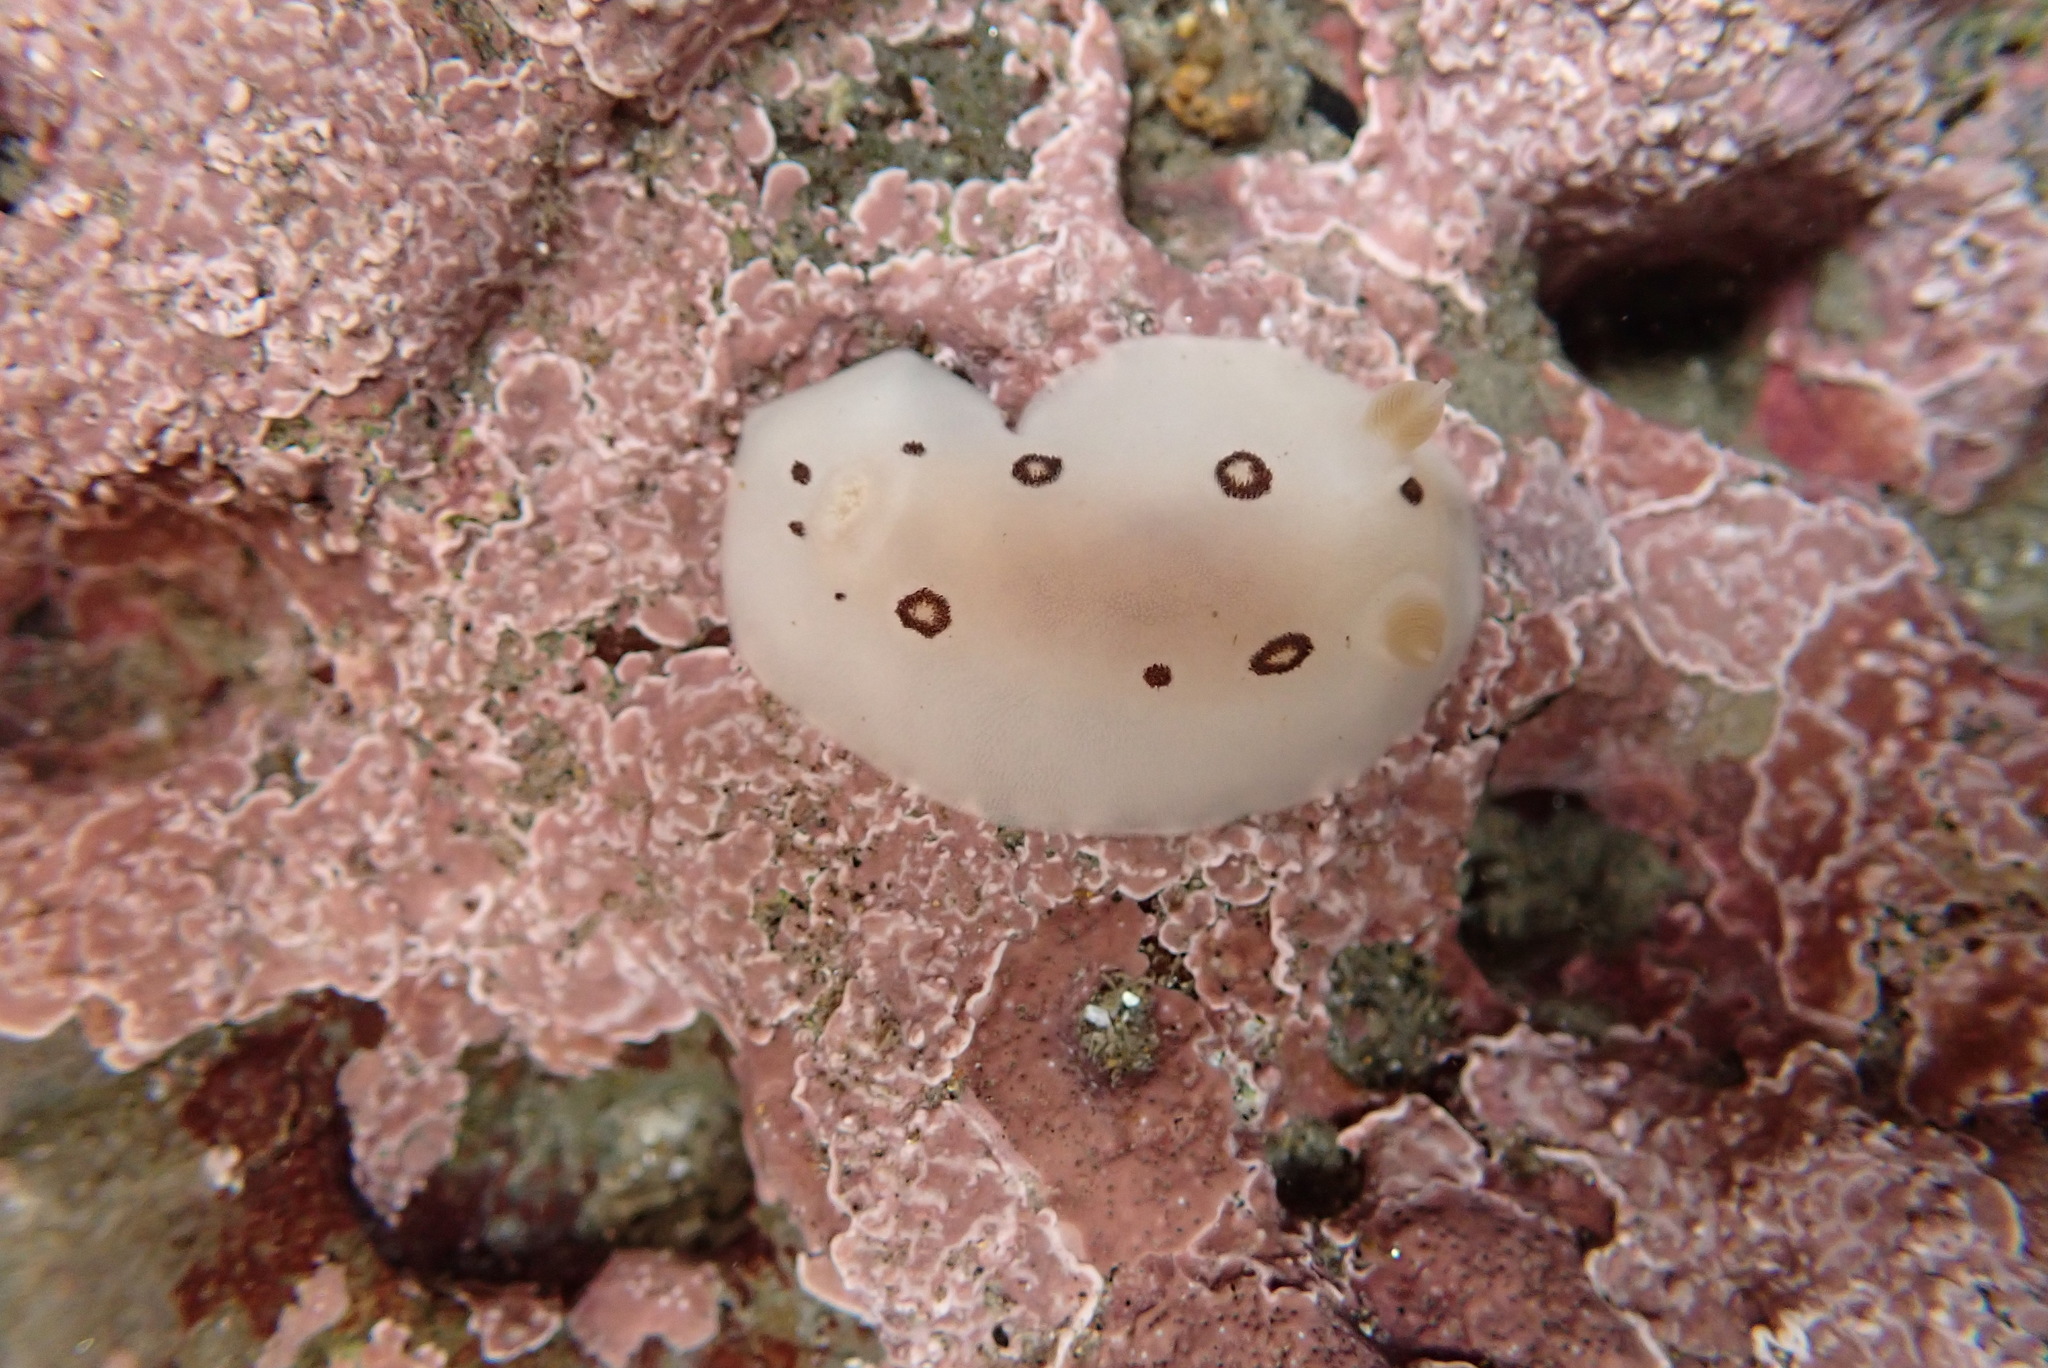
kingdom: Animalia
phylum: Mollusca
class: Gastropoda
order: Nudibranchia
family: Discodorididae
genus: Diaulula
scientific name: Diaulula sandiegensis
